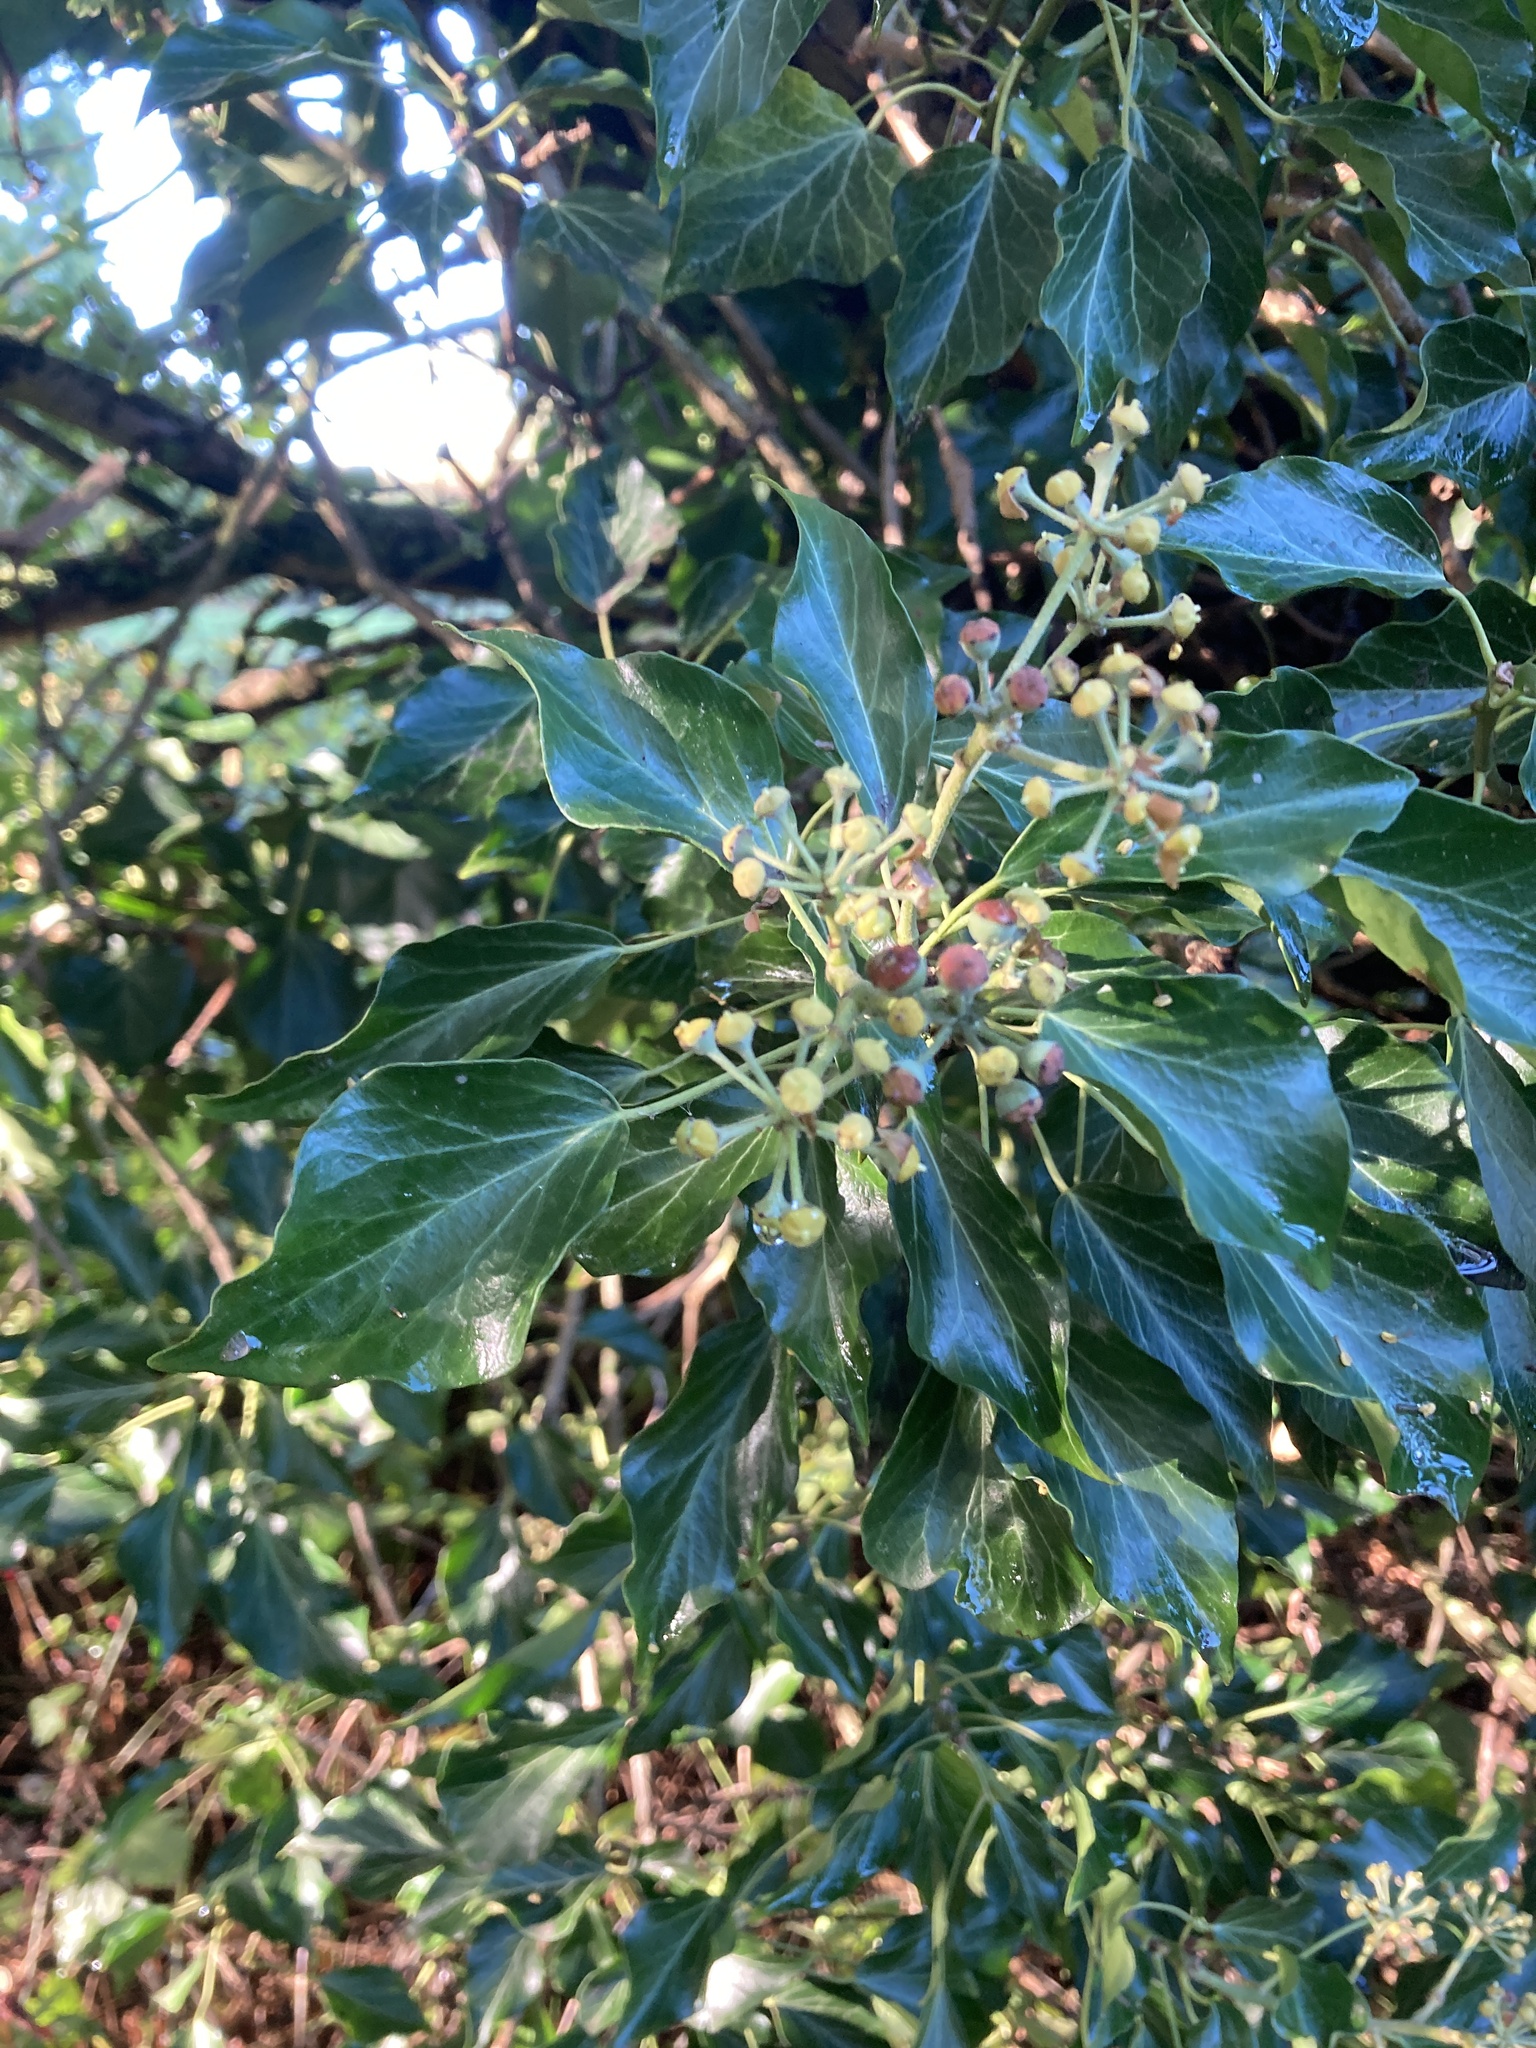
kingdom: Plantae
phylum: Tracheophyta
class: Magnoliopsida
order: Apiales
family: Araliaceae
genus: Hedera
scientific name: Hedera helix
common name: Ivy
